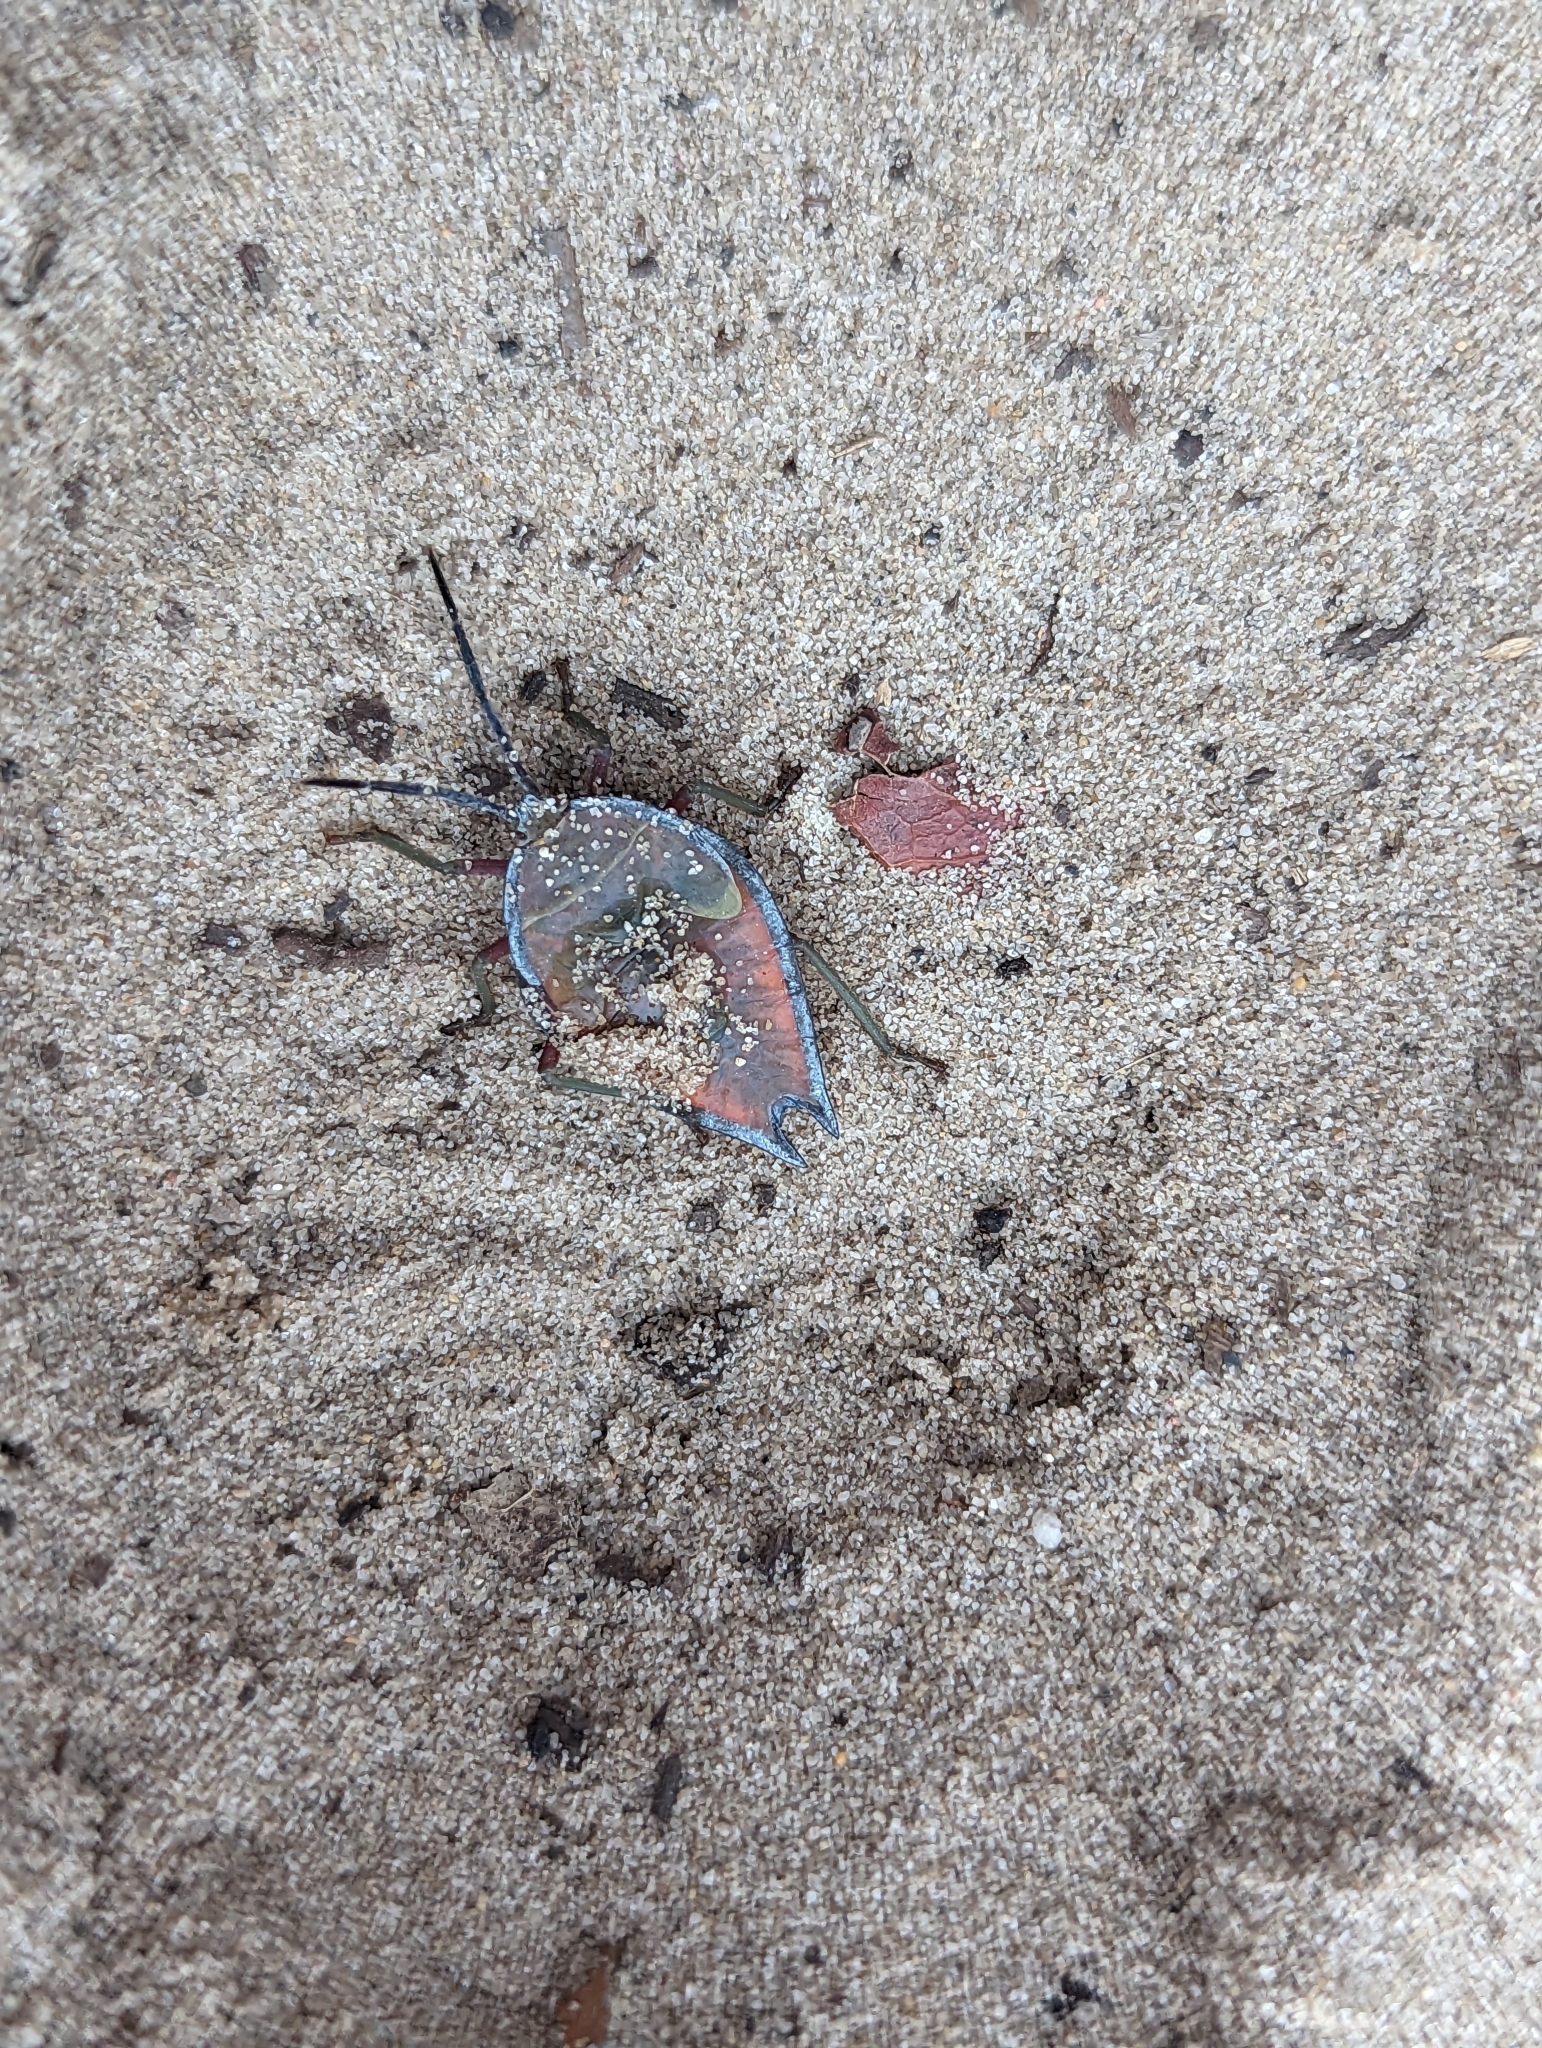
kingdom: Animalia
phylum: Arthropoda
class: Insecta
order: Hemiptera
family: Tessaratomidae
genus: Lyramorpha
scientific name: Lyramorpha rosea
